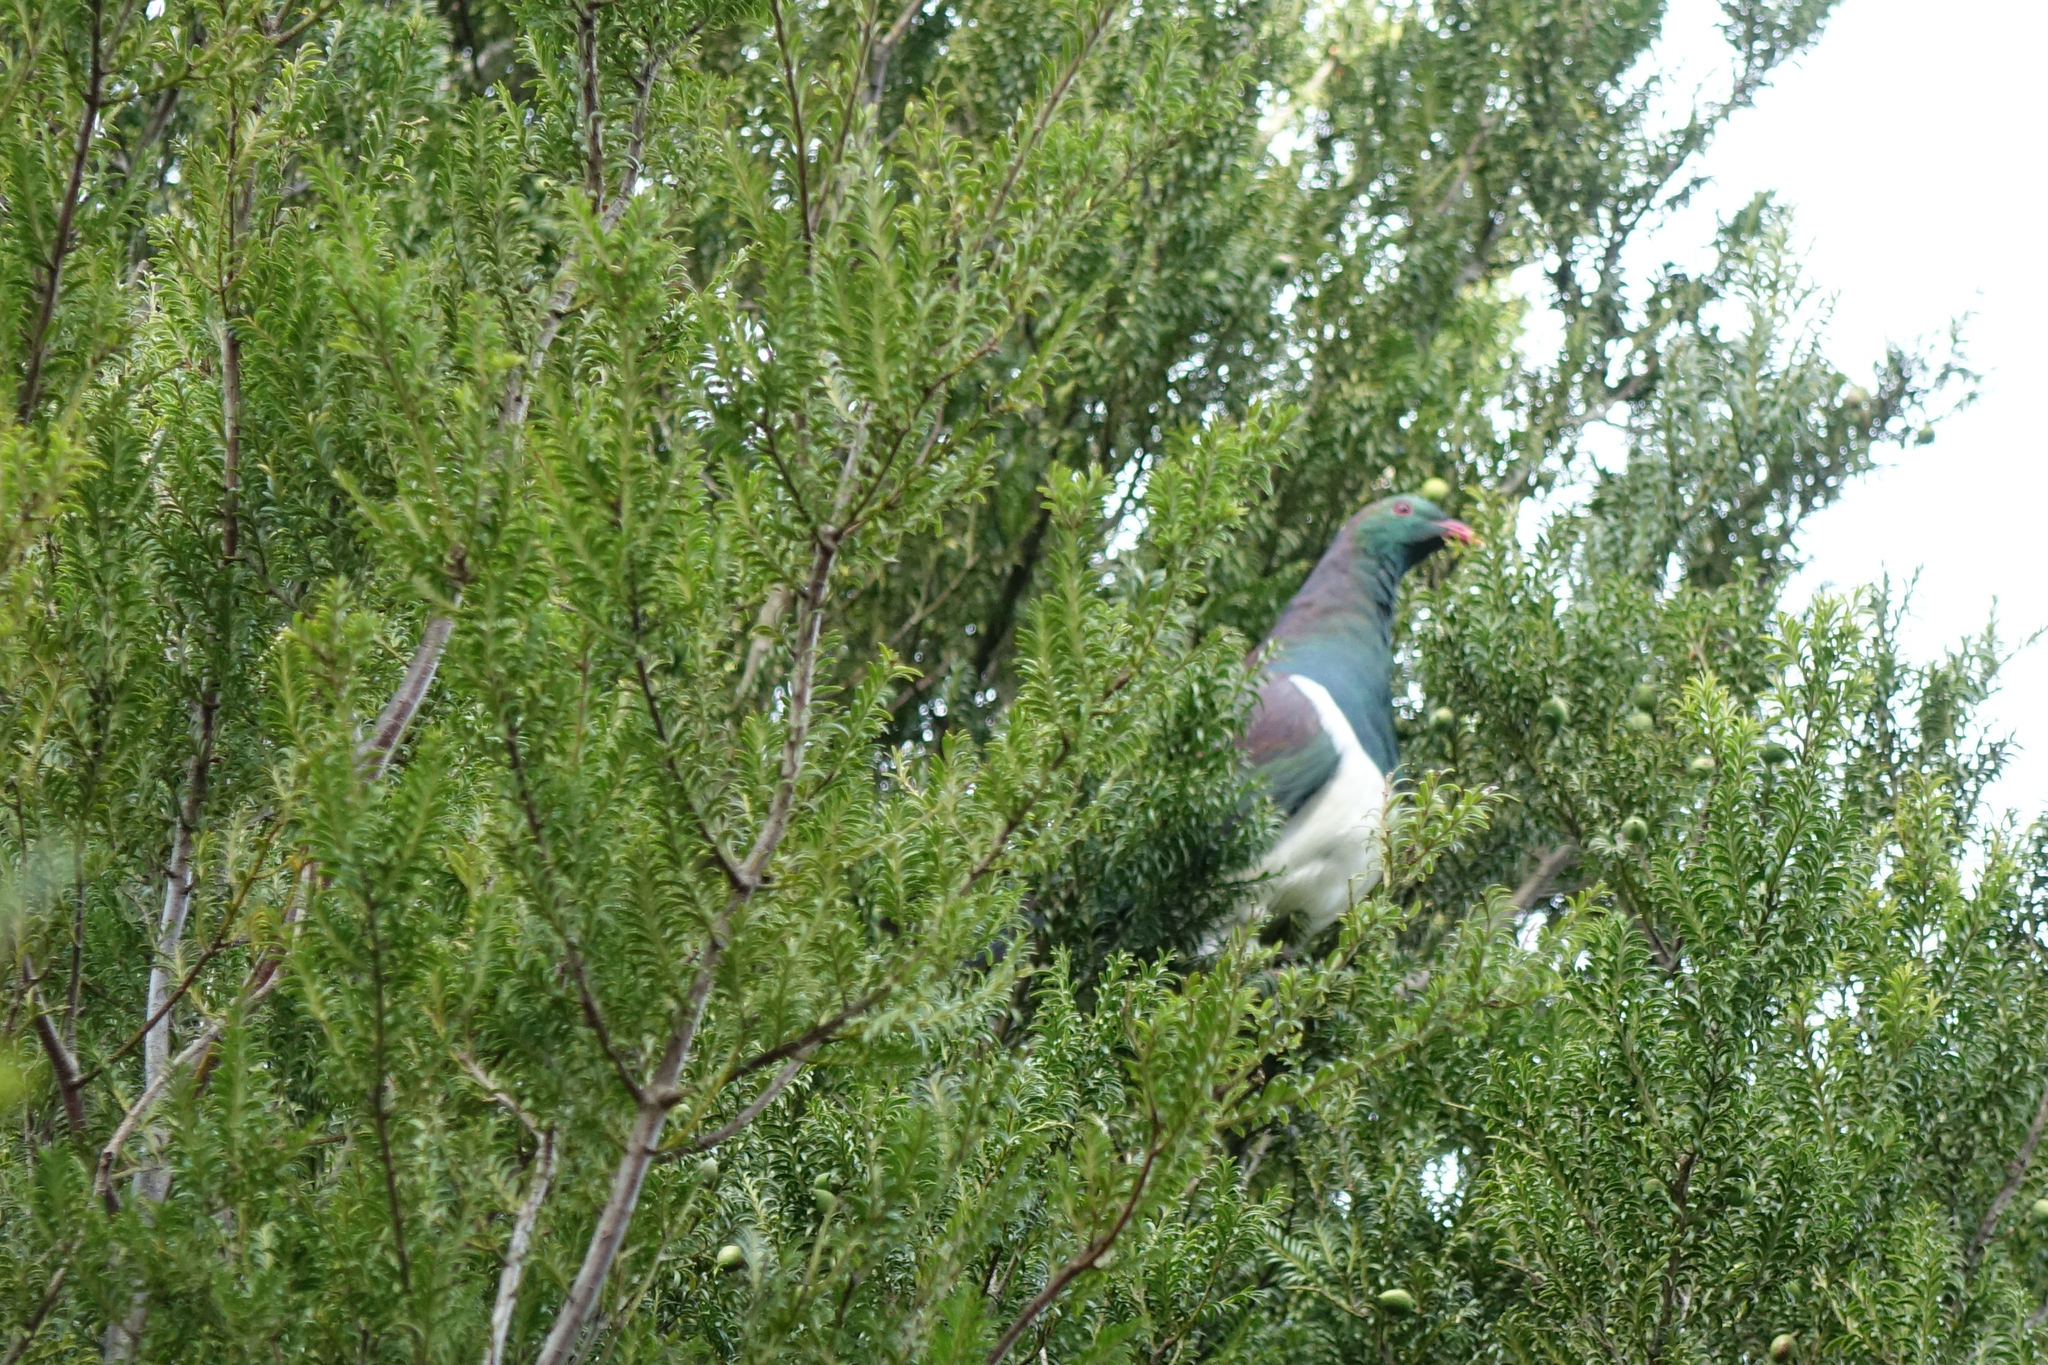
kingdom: Animalia
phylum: Chordata
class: Aves
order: Columbiformes
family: Columbidae
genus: Hemiphaga
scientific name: Hemiphaga novaeseelandiae
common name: New zealand pigeon
